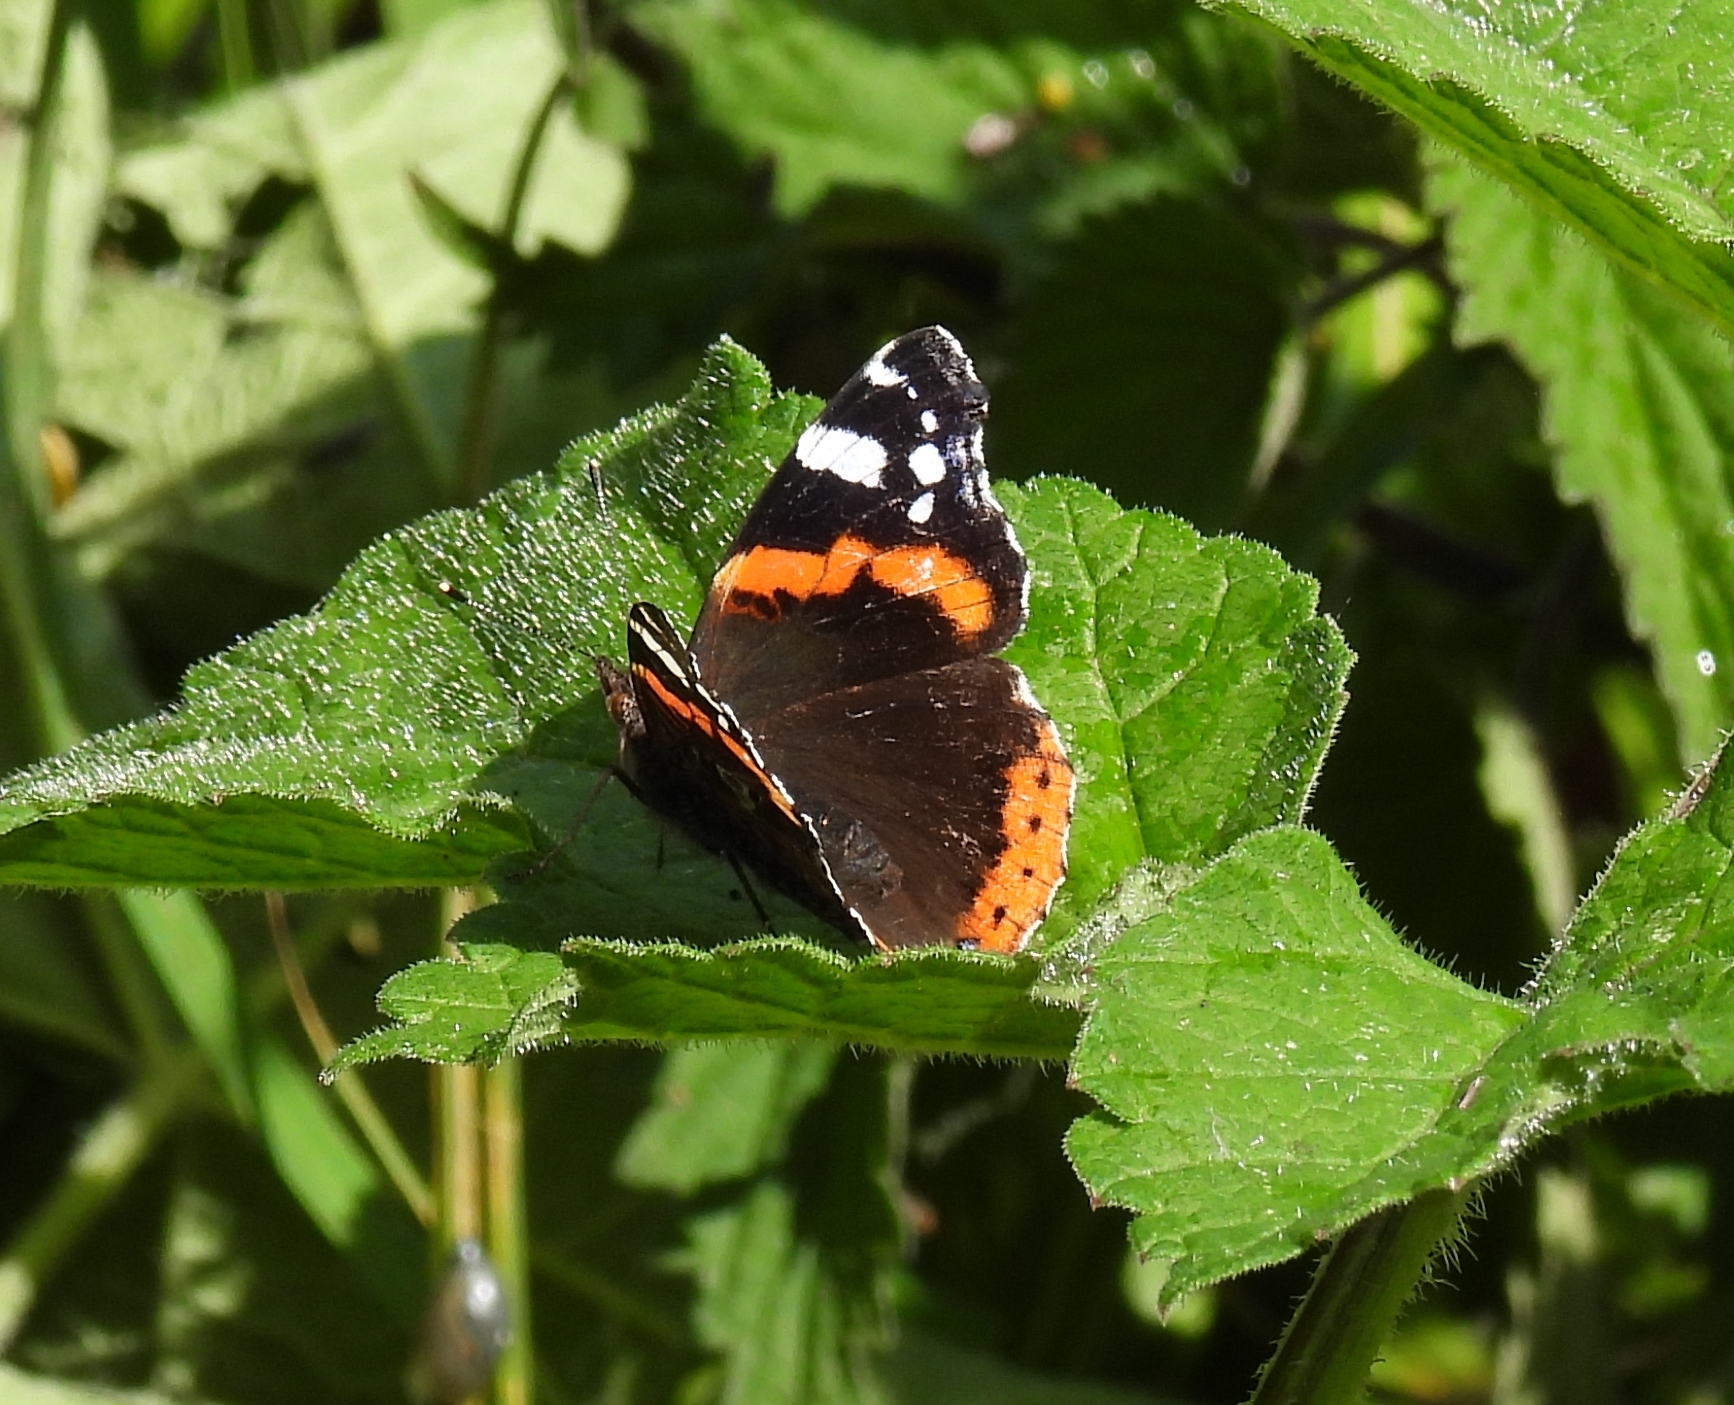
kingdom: Animalia
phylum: Arthropoda
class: Insecta
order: Lepidoptera
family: Nymphalidae
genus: Vanessa
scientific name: Vanessa atalanta
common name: Red admiral
